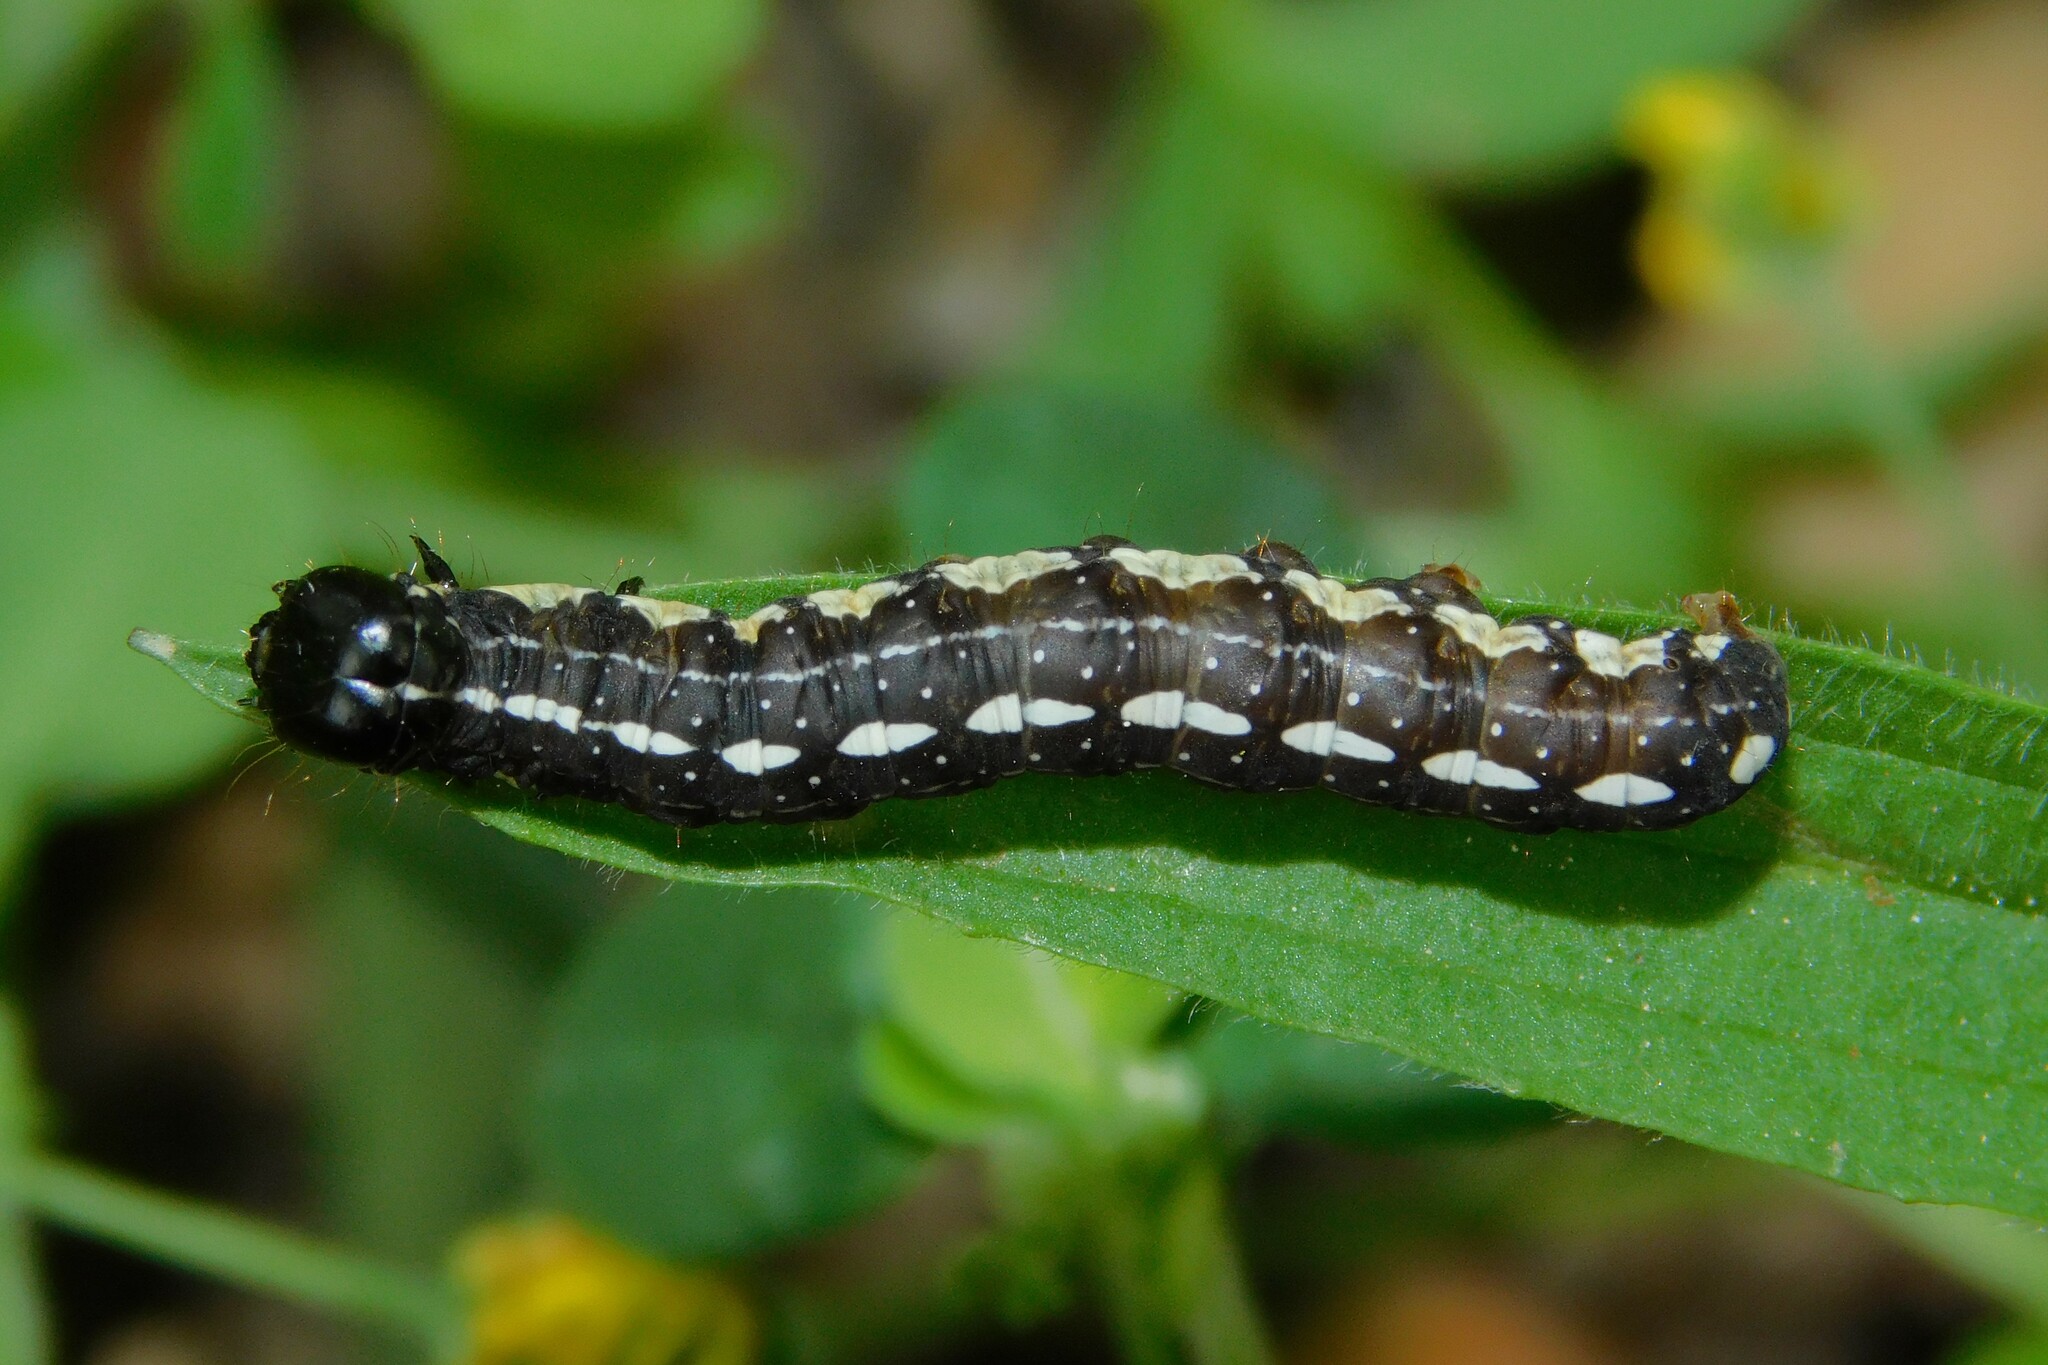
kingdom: Animalia
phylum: Arthropoda
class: Insecta
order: Lepidoptera
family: Noctuidae
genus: Dicycla
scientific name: Dicycla oo
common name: Heart moth
